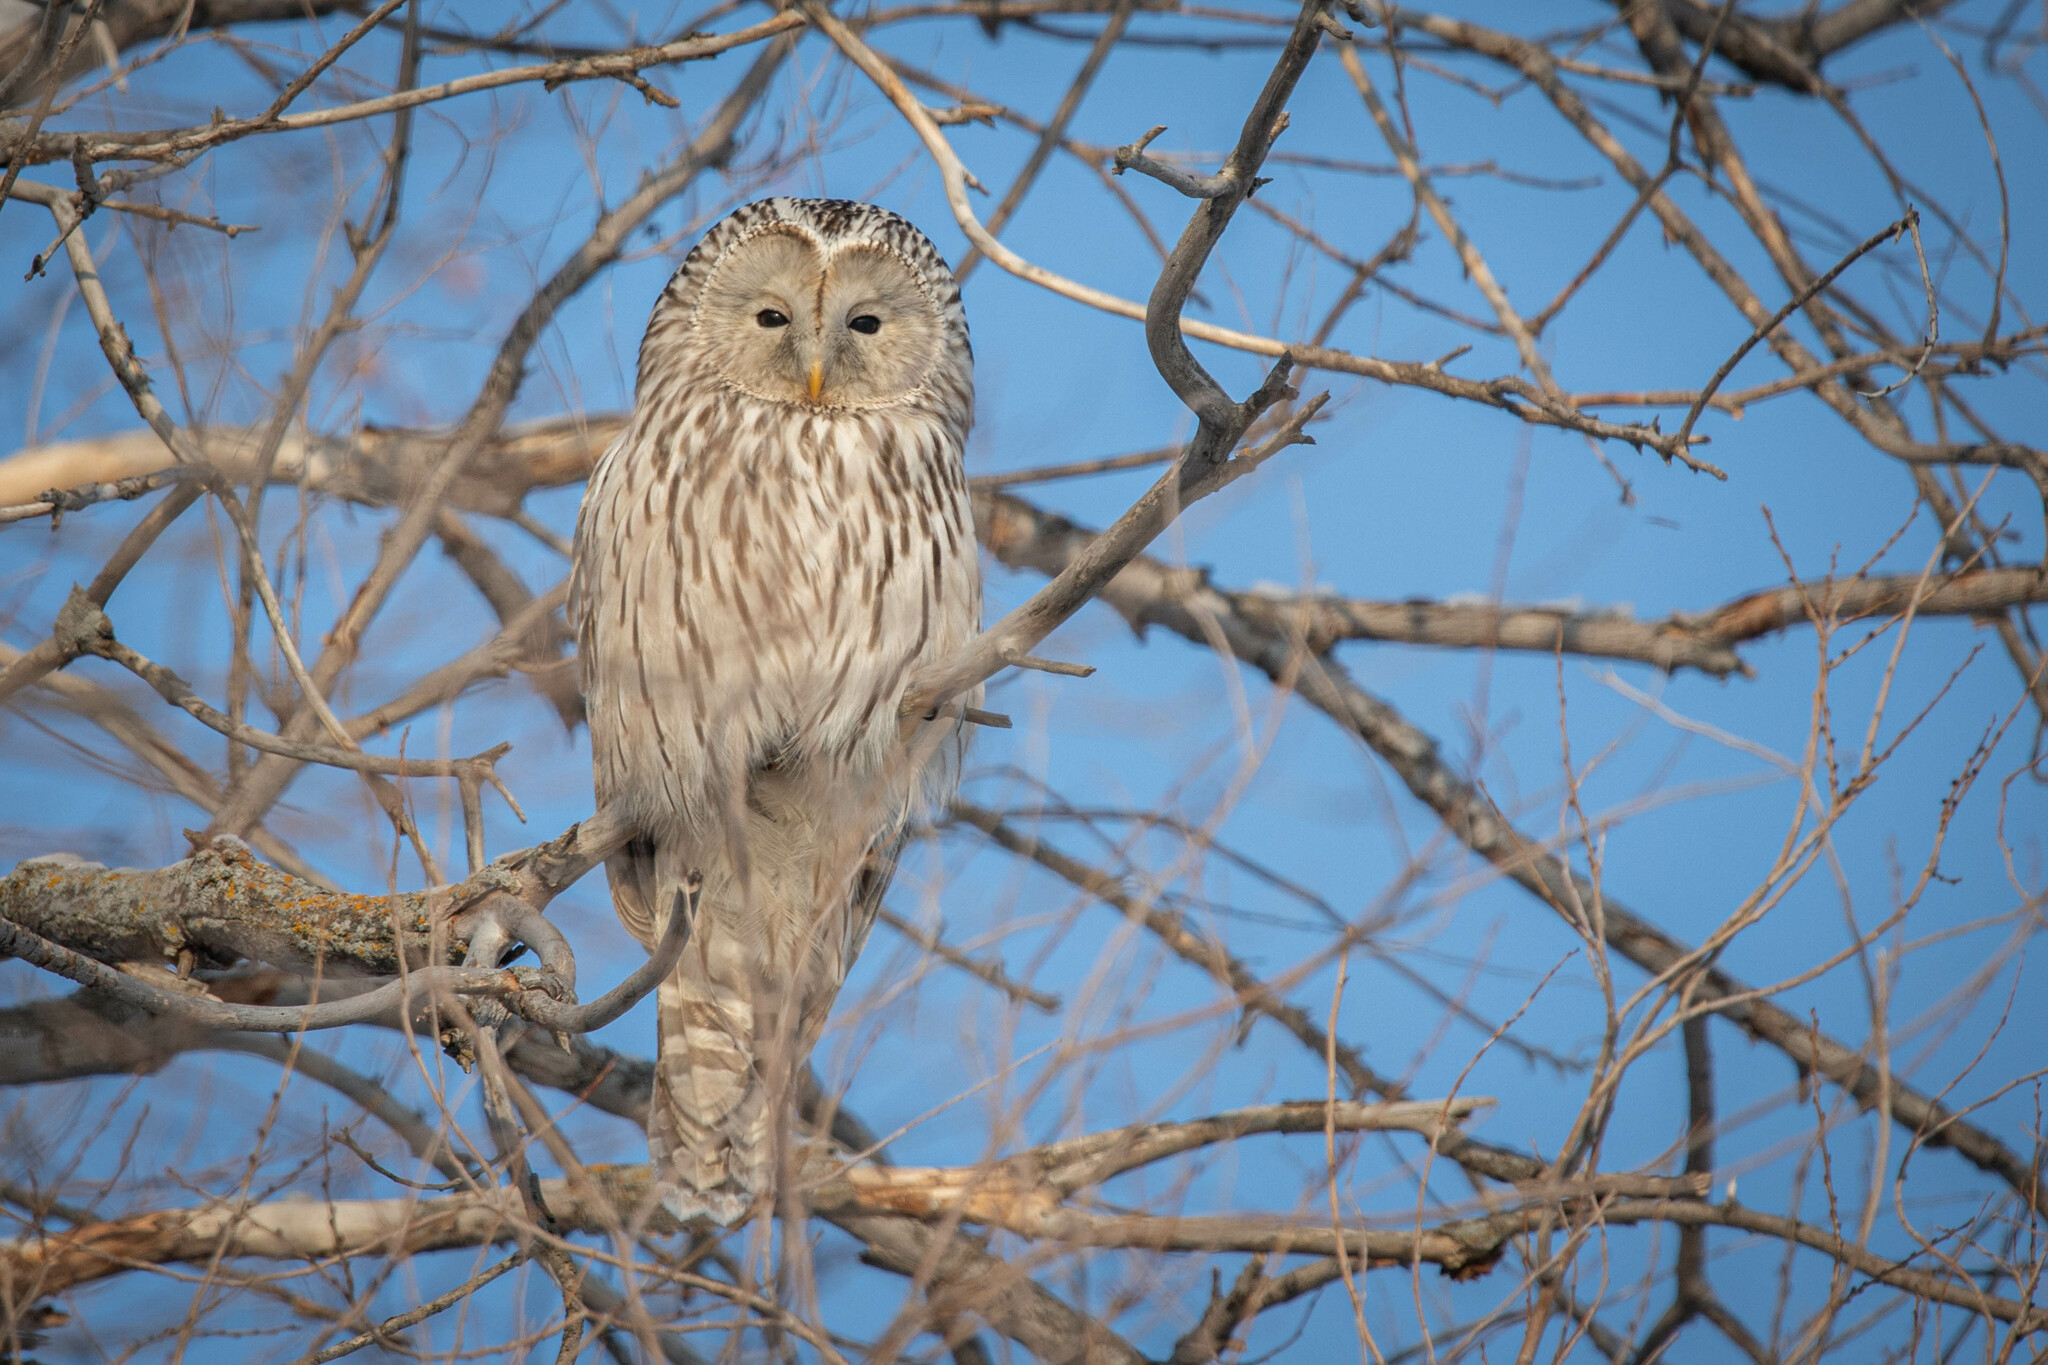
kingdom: Animalia
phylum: Chordata
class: Aves
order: Strigiformes
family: Strigidae
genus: Strix
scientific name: Strix uralensis
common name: Ural owl
